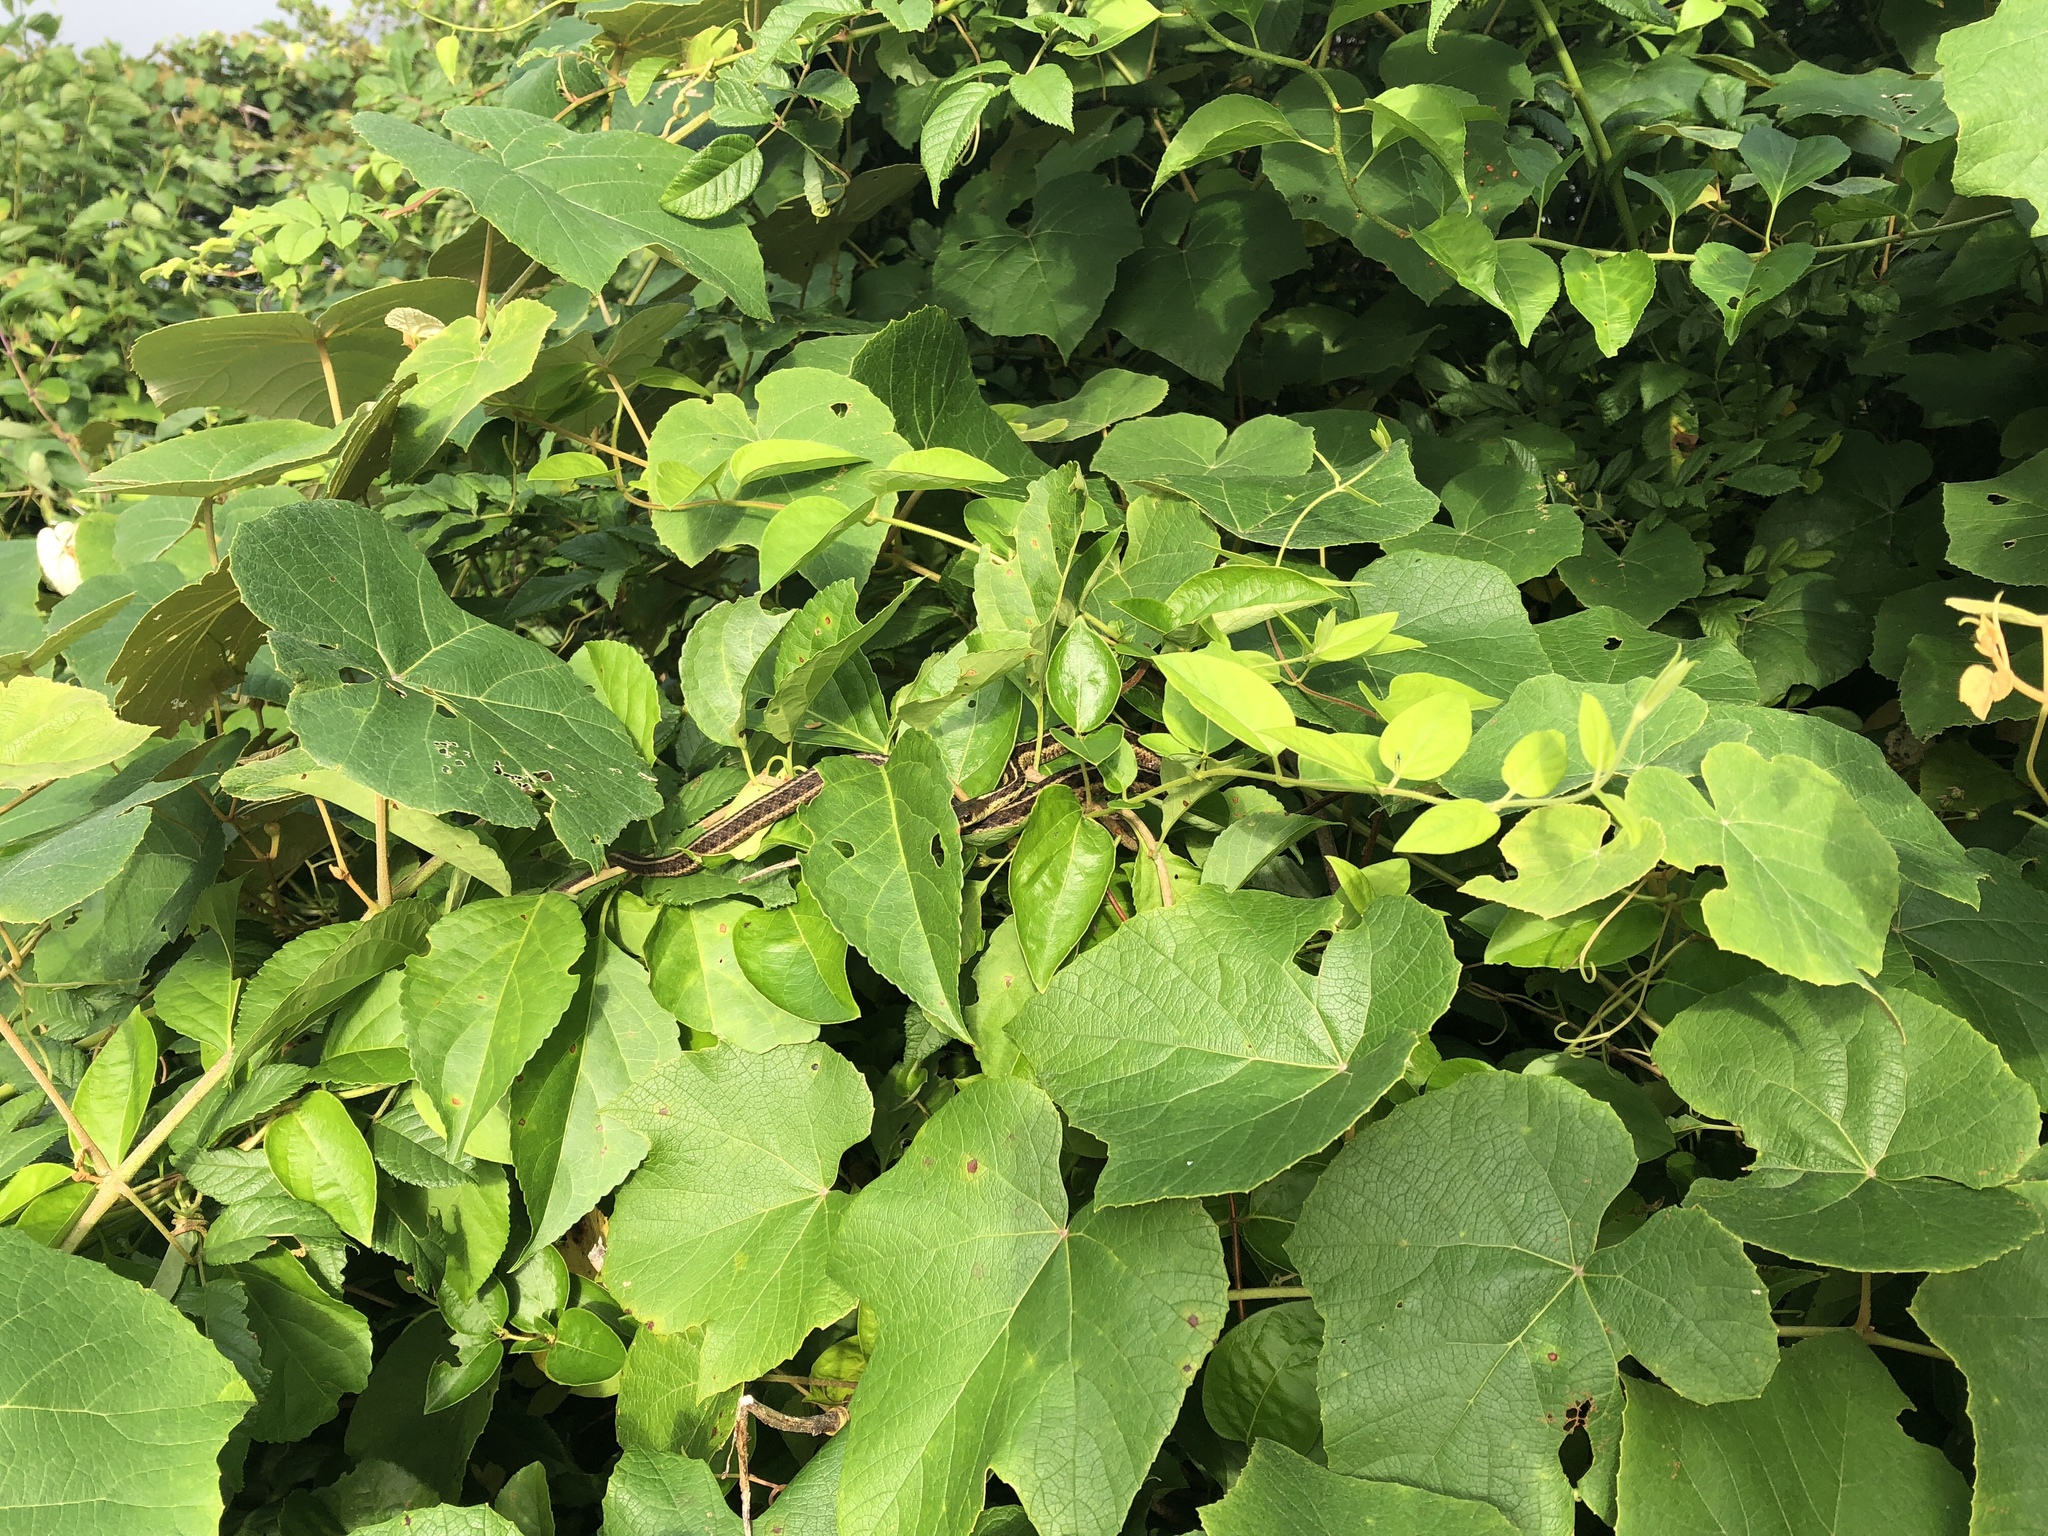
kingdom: Animalia
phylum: Chordata
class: Squamata
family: Colubridae
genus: Thamnophis
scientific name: Thamnophis sirtalis
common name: Common garter snake
